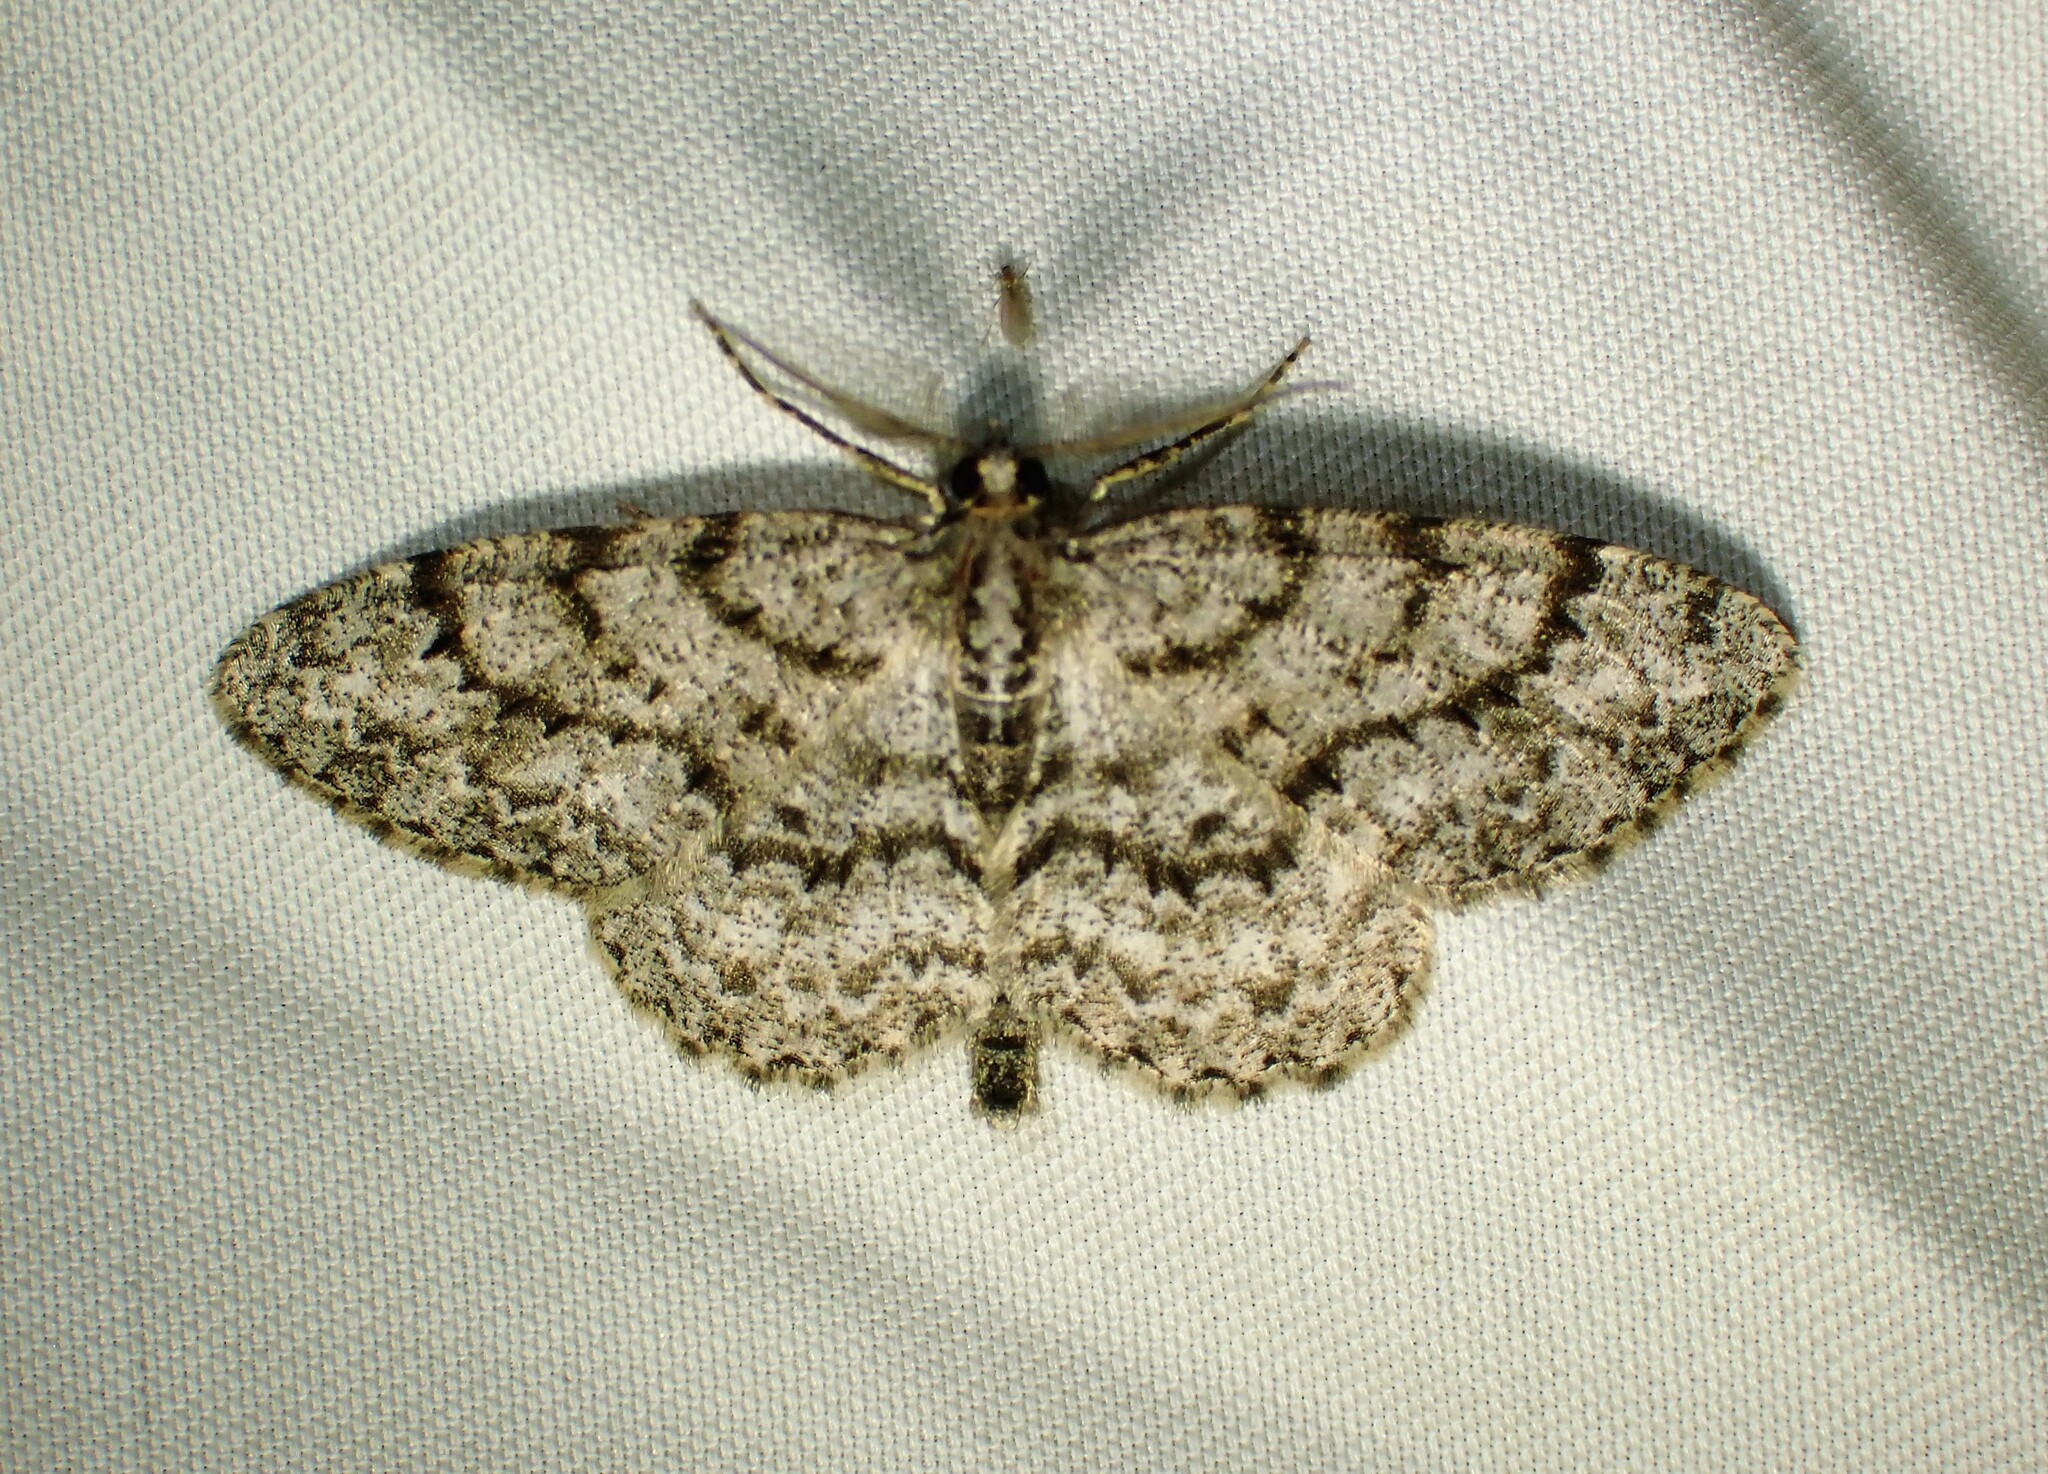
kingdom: Animalia
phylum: Arthropoda
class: Insecta
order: Lepidoptera
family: Geometridae
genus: Protoboarmia
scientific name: Protoboarmia porcelaria
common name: Porcelain gray
